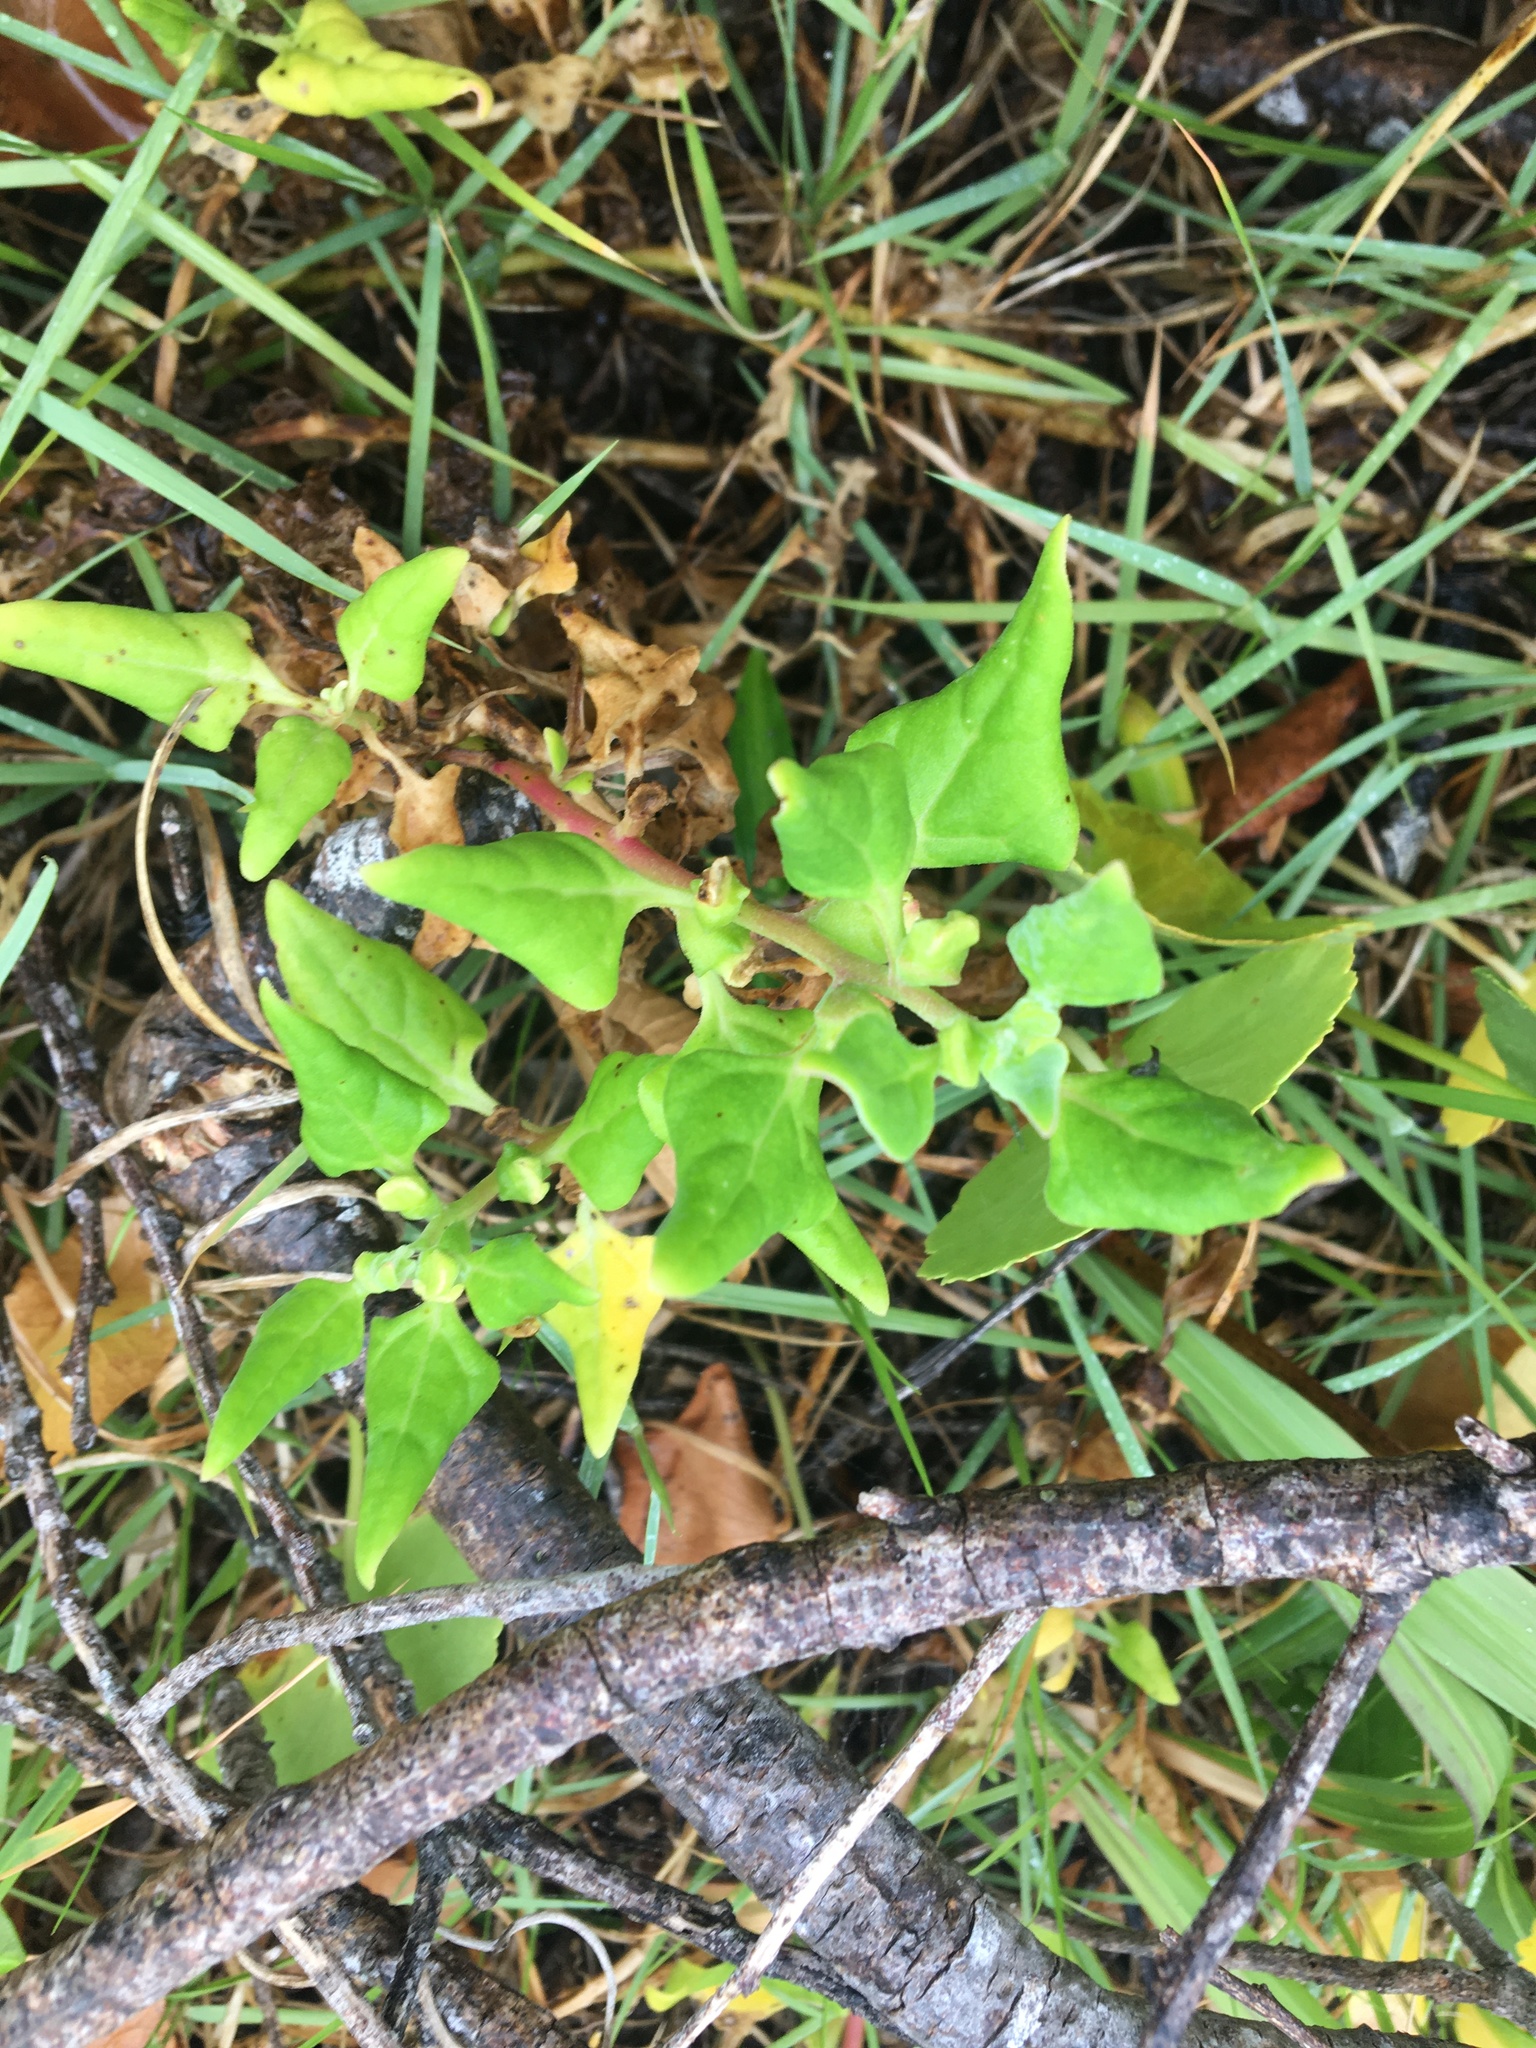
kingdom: Plantae
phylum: Tracheophyta
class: Magnoliopsida
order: Caryophyllales
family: Aizoaceae
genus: Tetragonia
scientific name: Tetragonia tetragonoides
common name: New zealand-spinach
